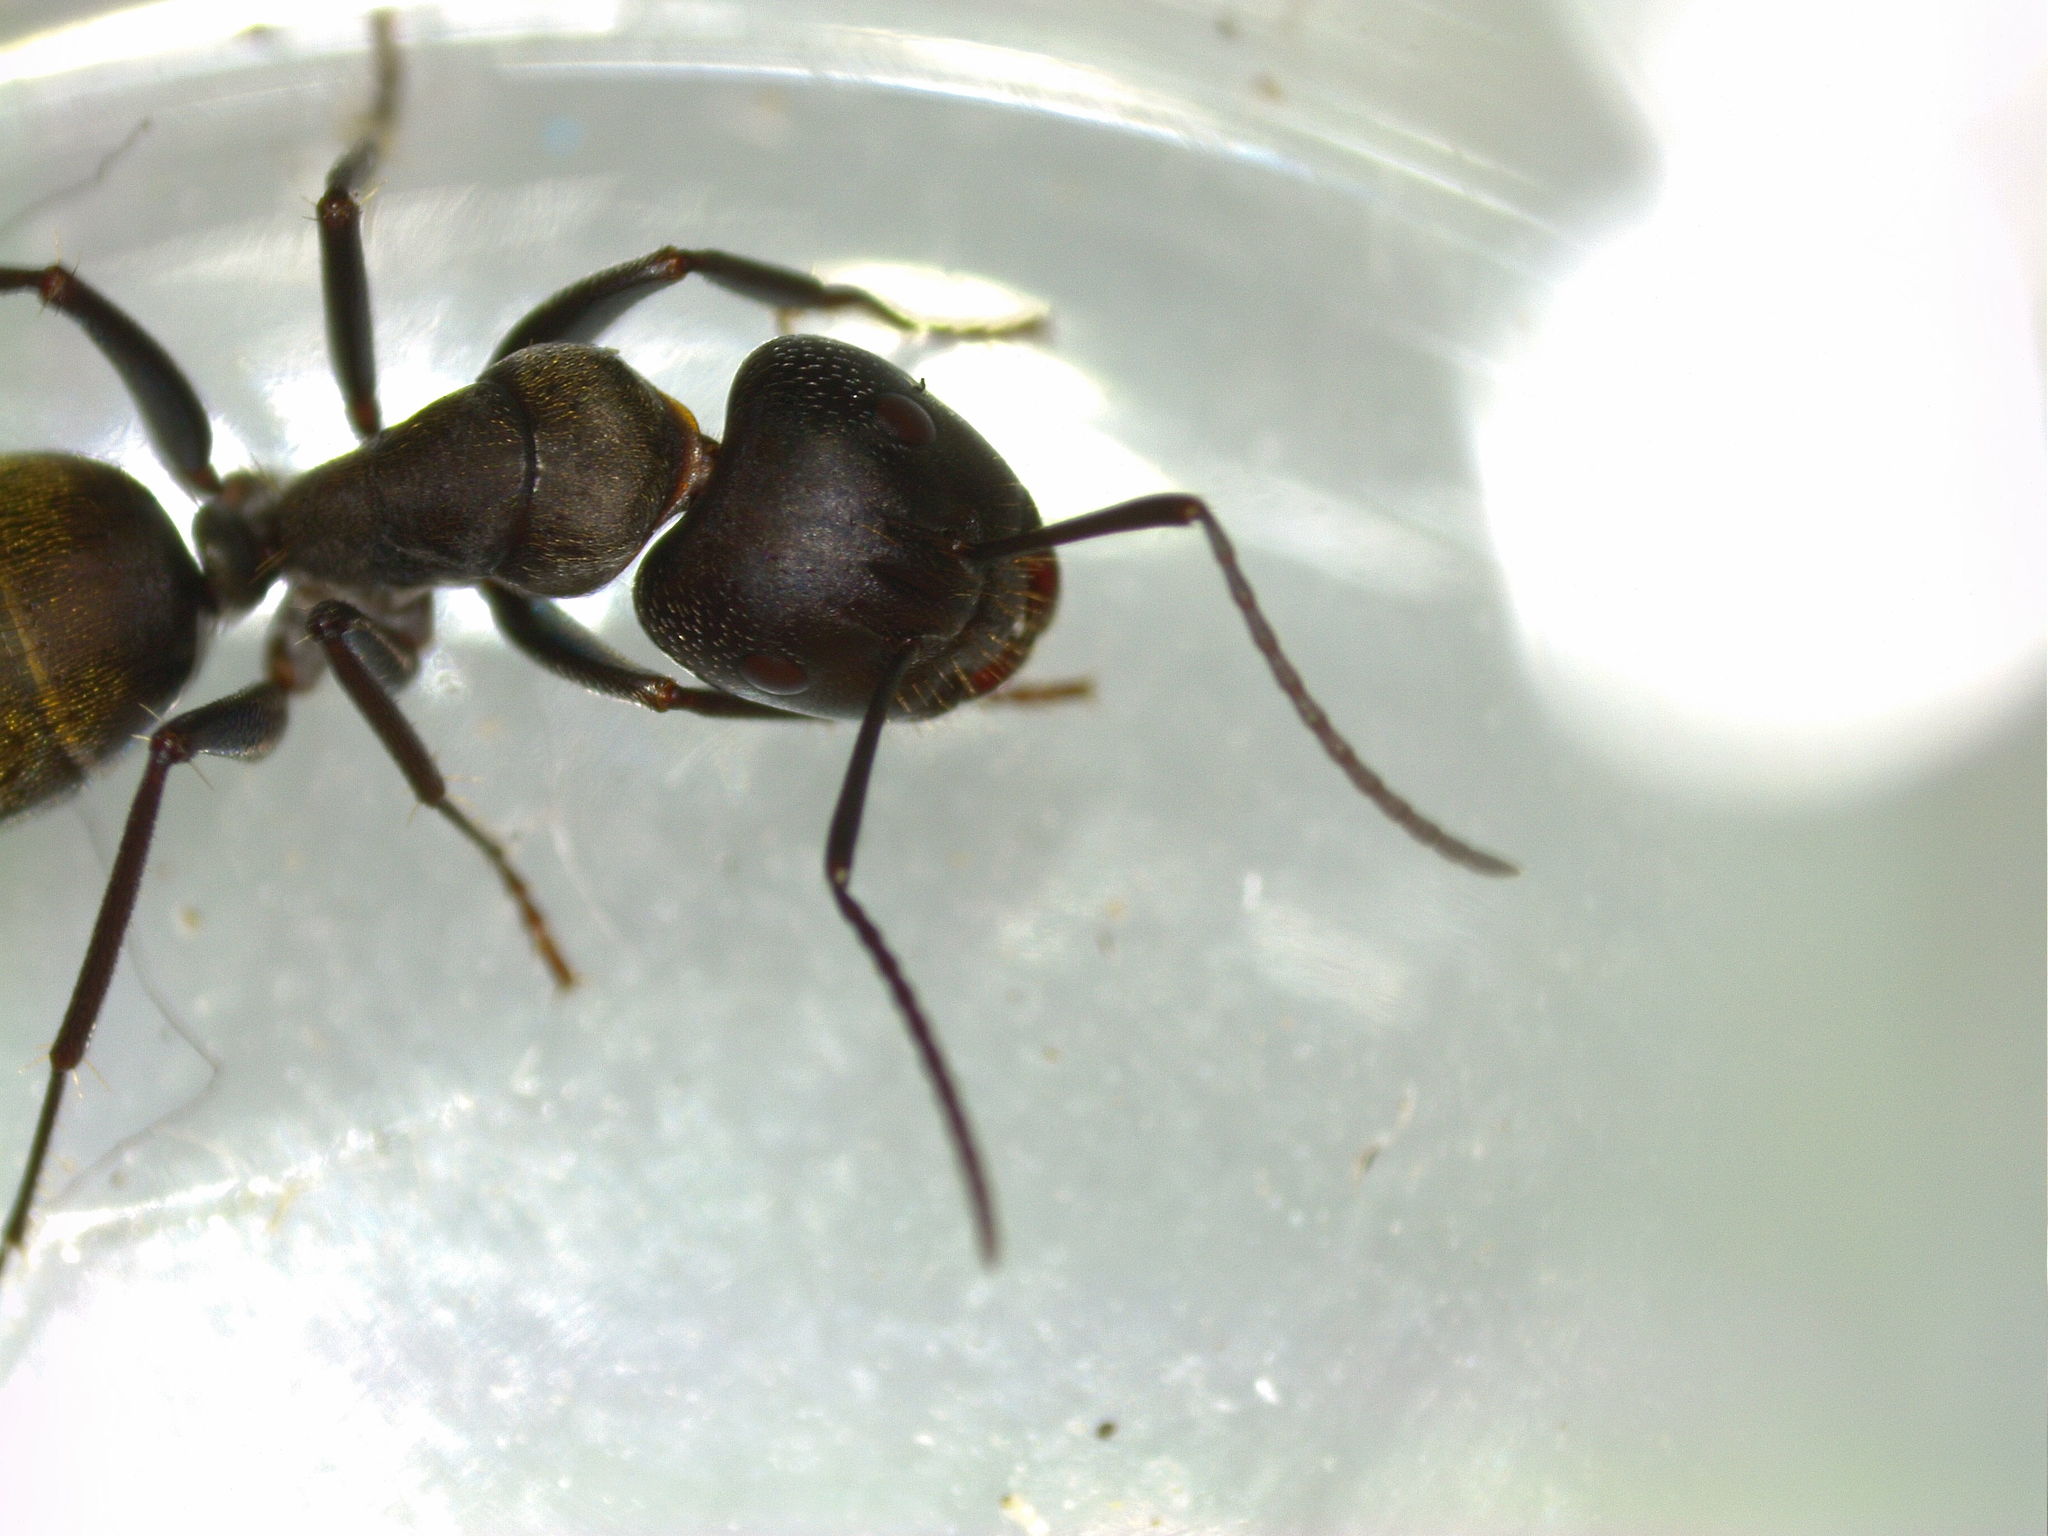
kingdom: Animalia
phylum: Arthropoda
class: Insecta
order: Hymenoptera
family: Formicidae
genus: Camponotus
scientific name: Camponotus aeneopilosus
